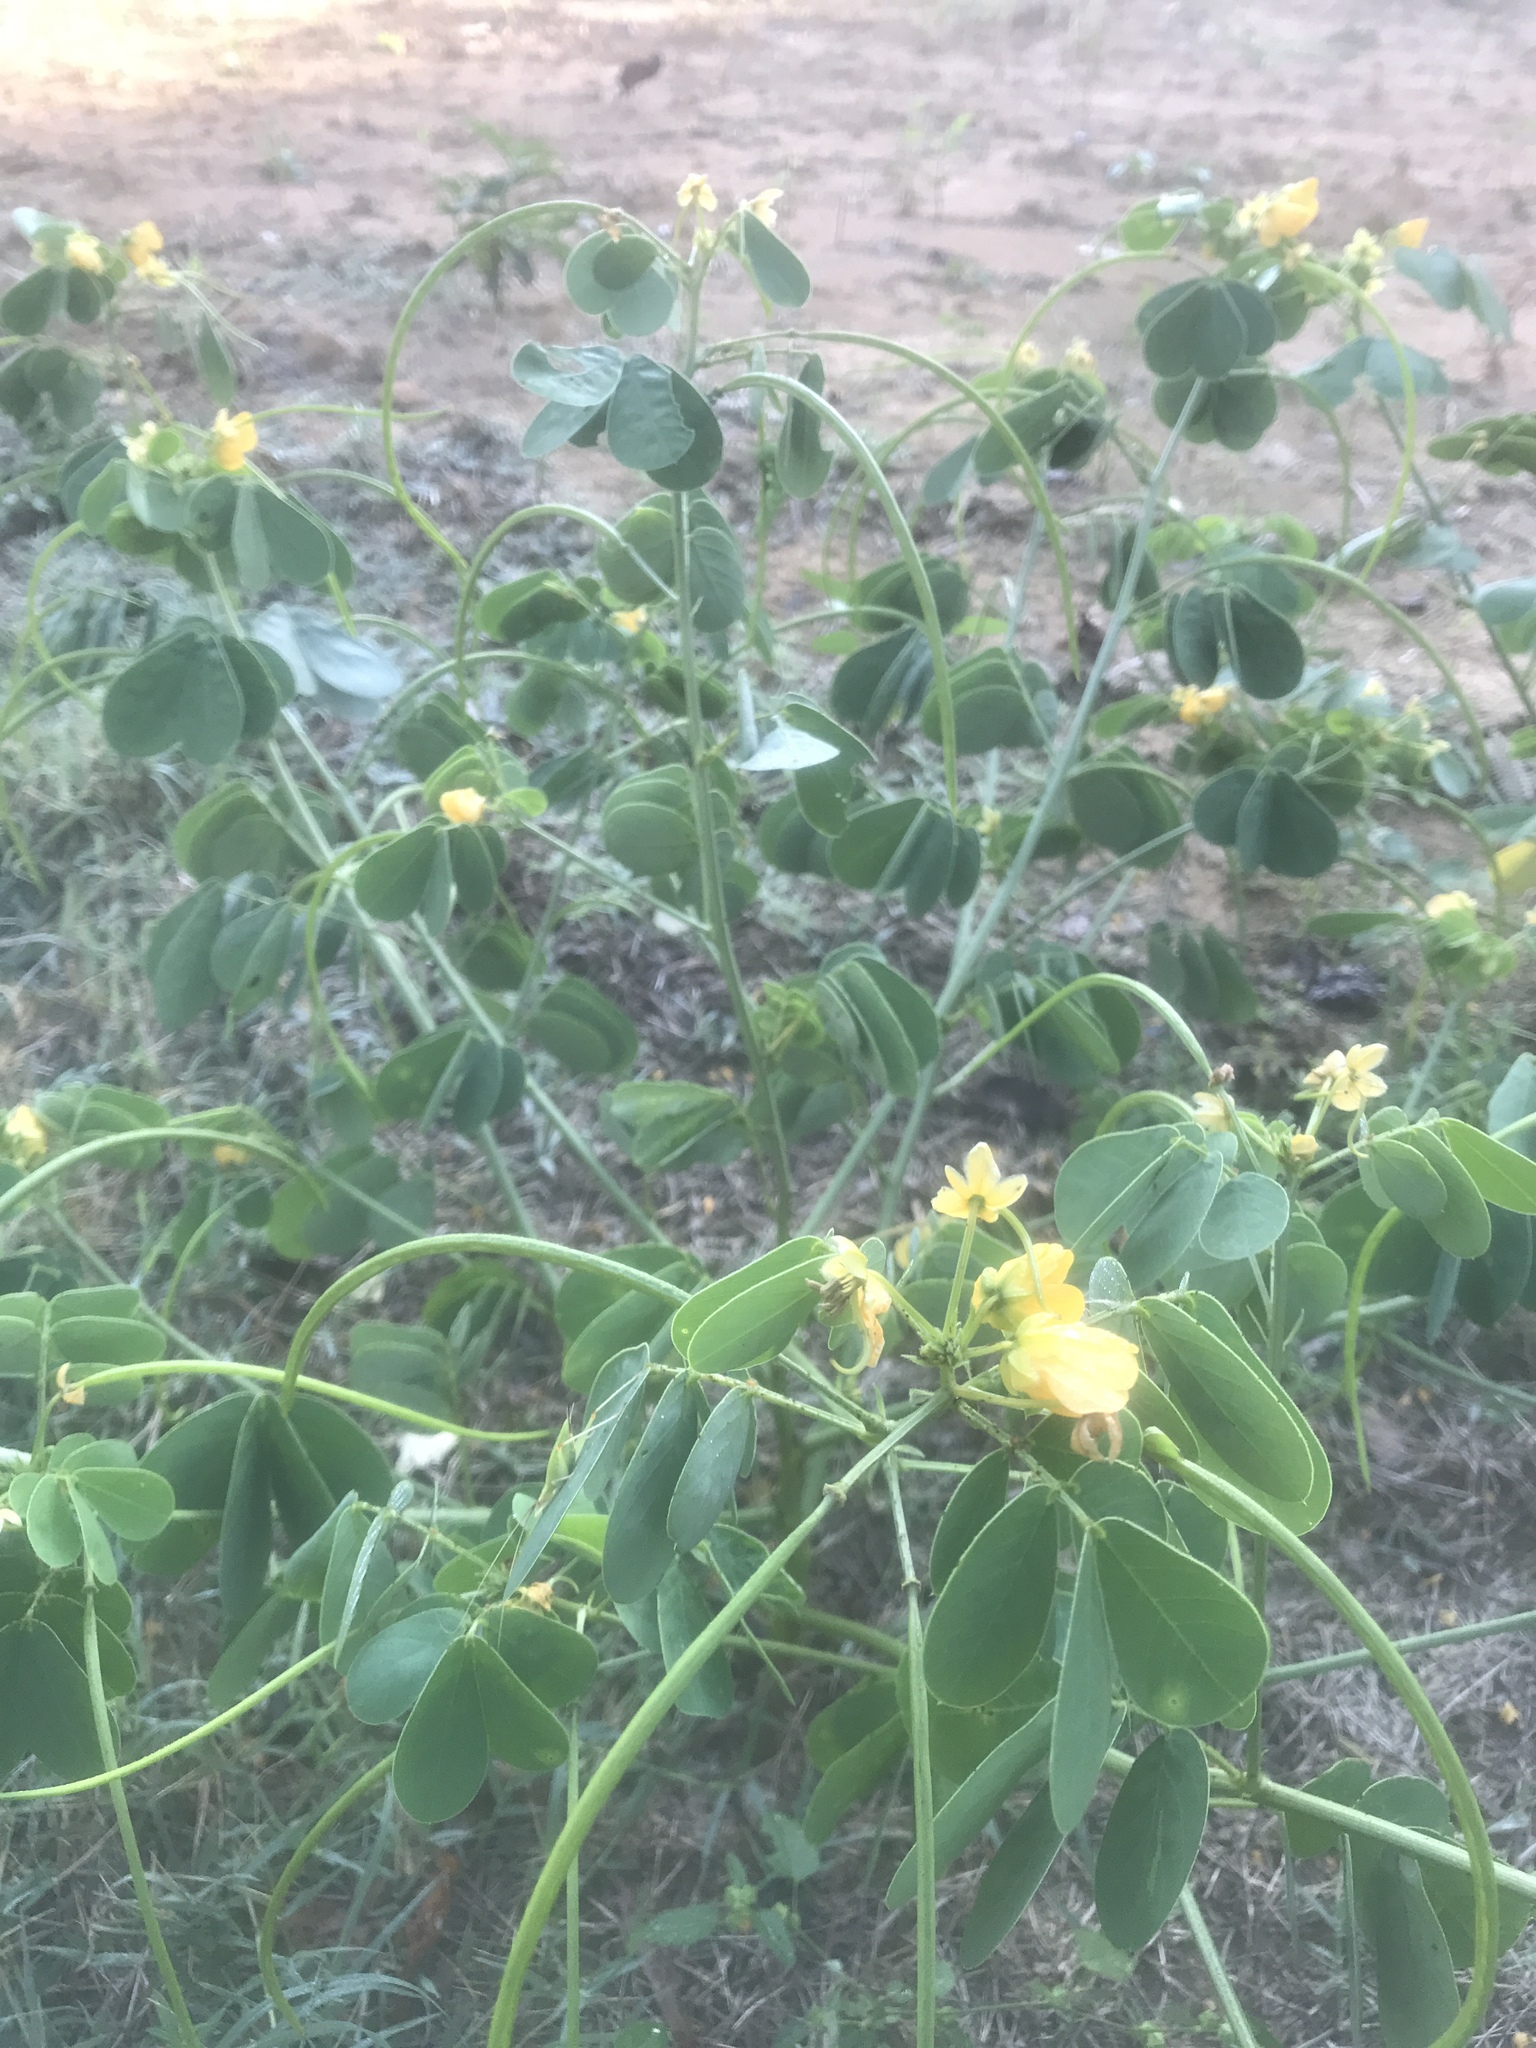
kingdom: Plantae
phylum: Tracheophyta
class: Magnoliopsida
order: Fabales
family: Fabaceae
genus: Senna
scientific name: Senna obtusifolia
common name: Java-bean
